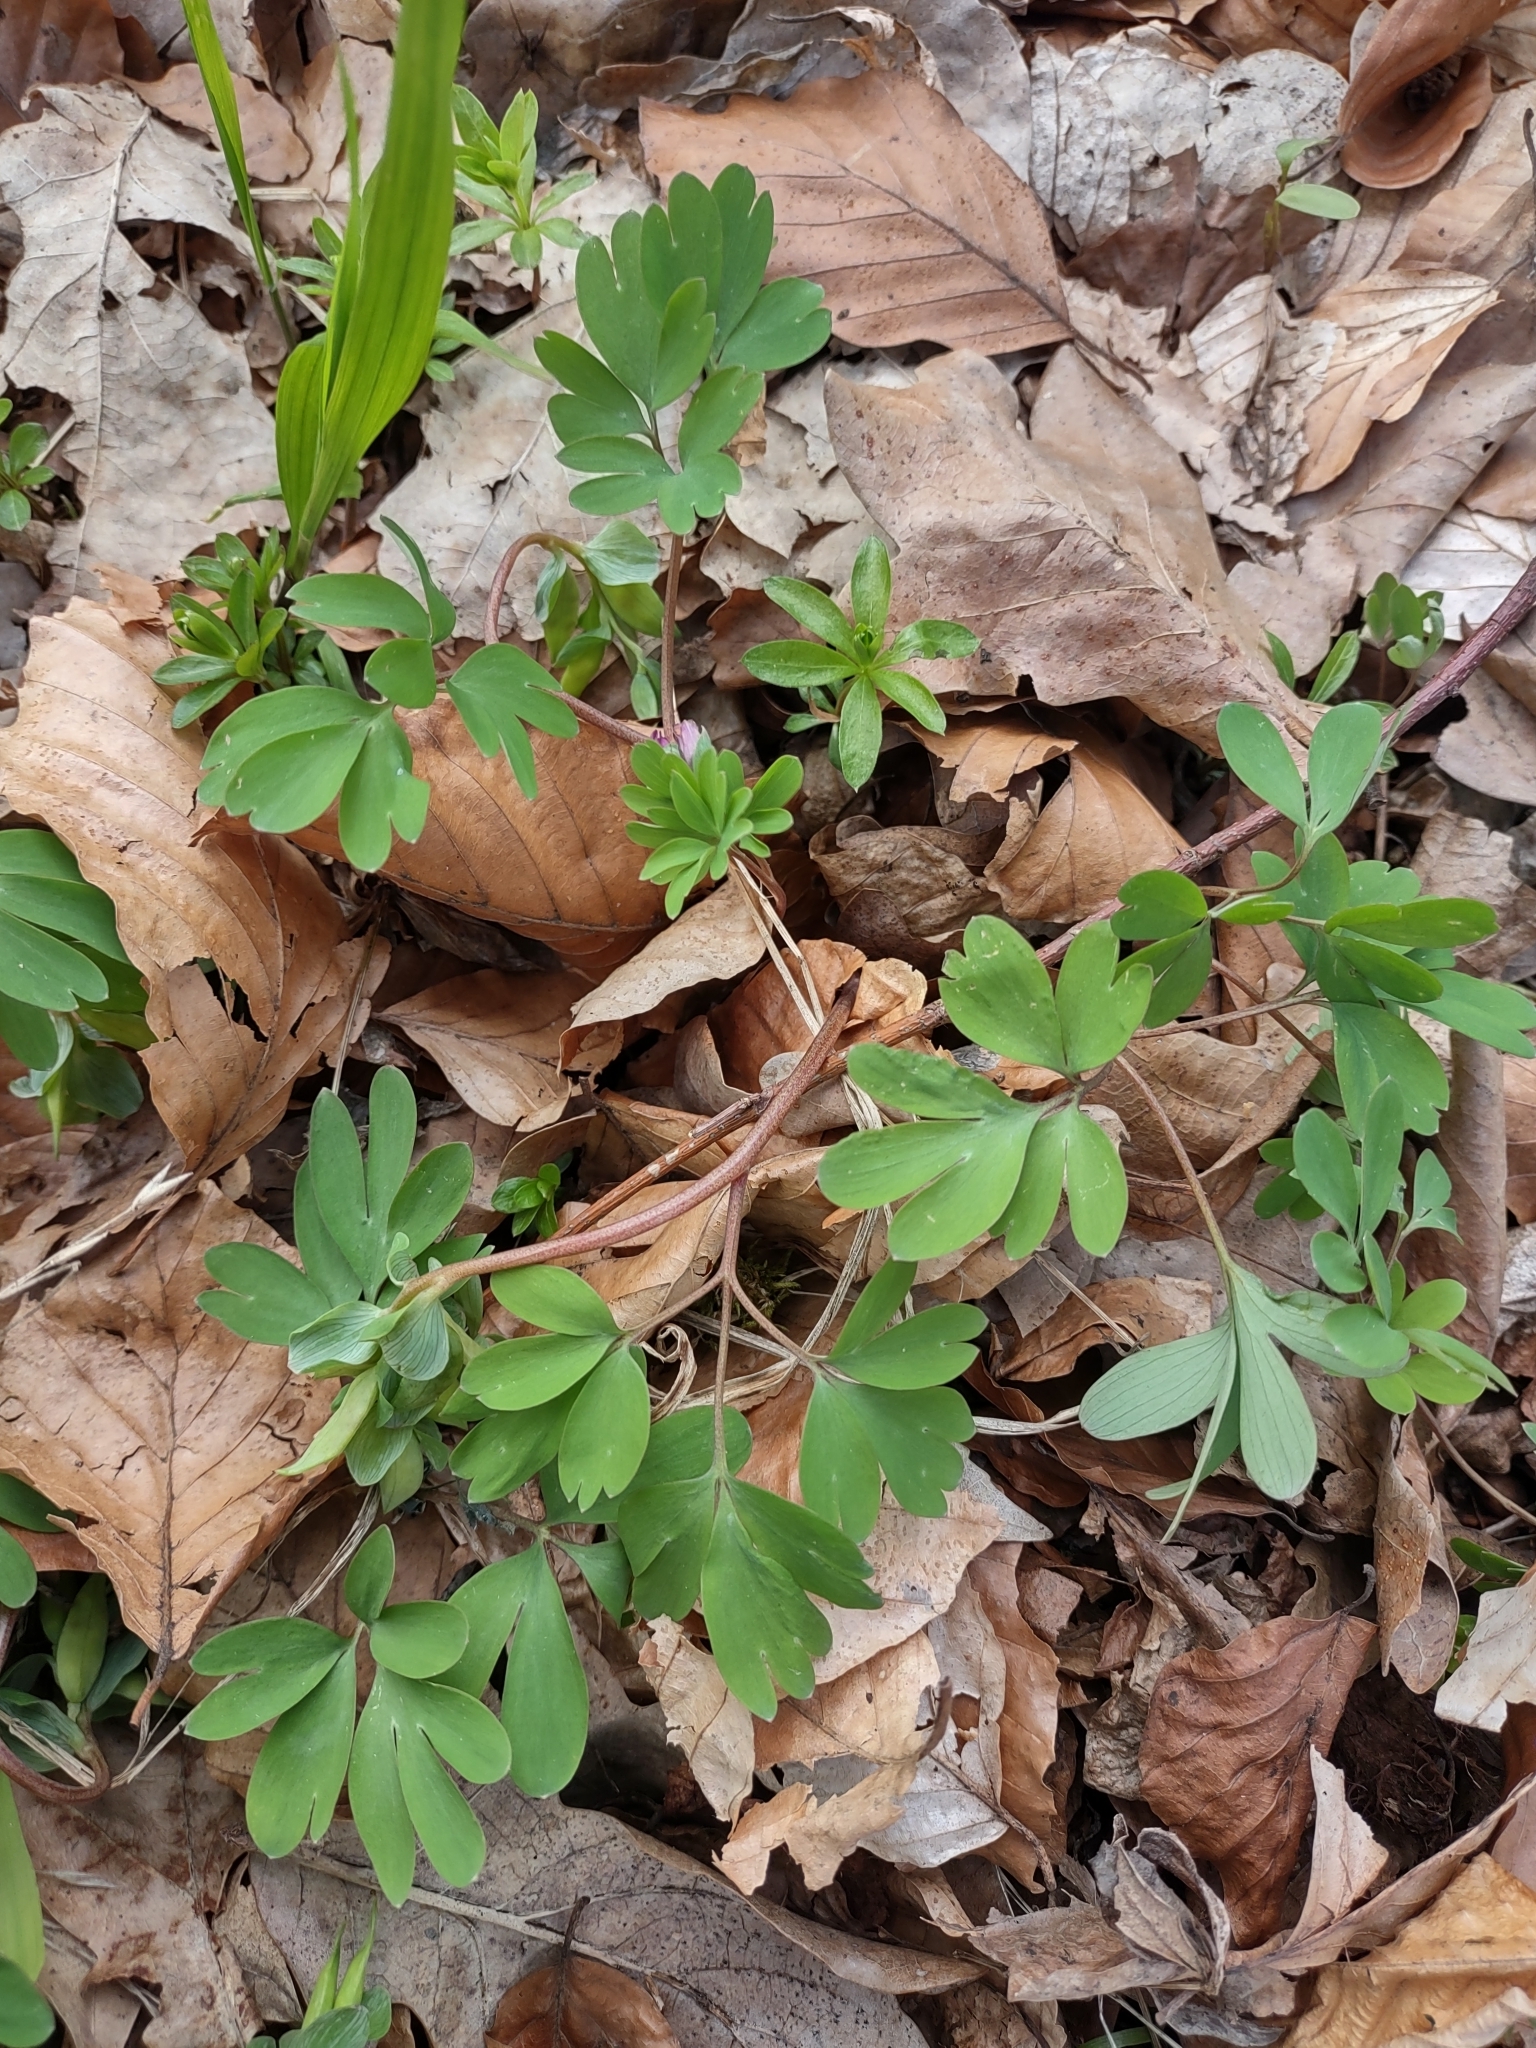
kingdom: Plantae
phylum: Tracheophyta
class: Magnoliopsida
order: Ranunculales
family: Papaveraceae
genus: Corydalis
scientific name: Corydalis intermedia
